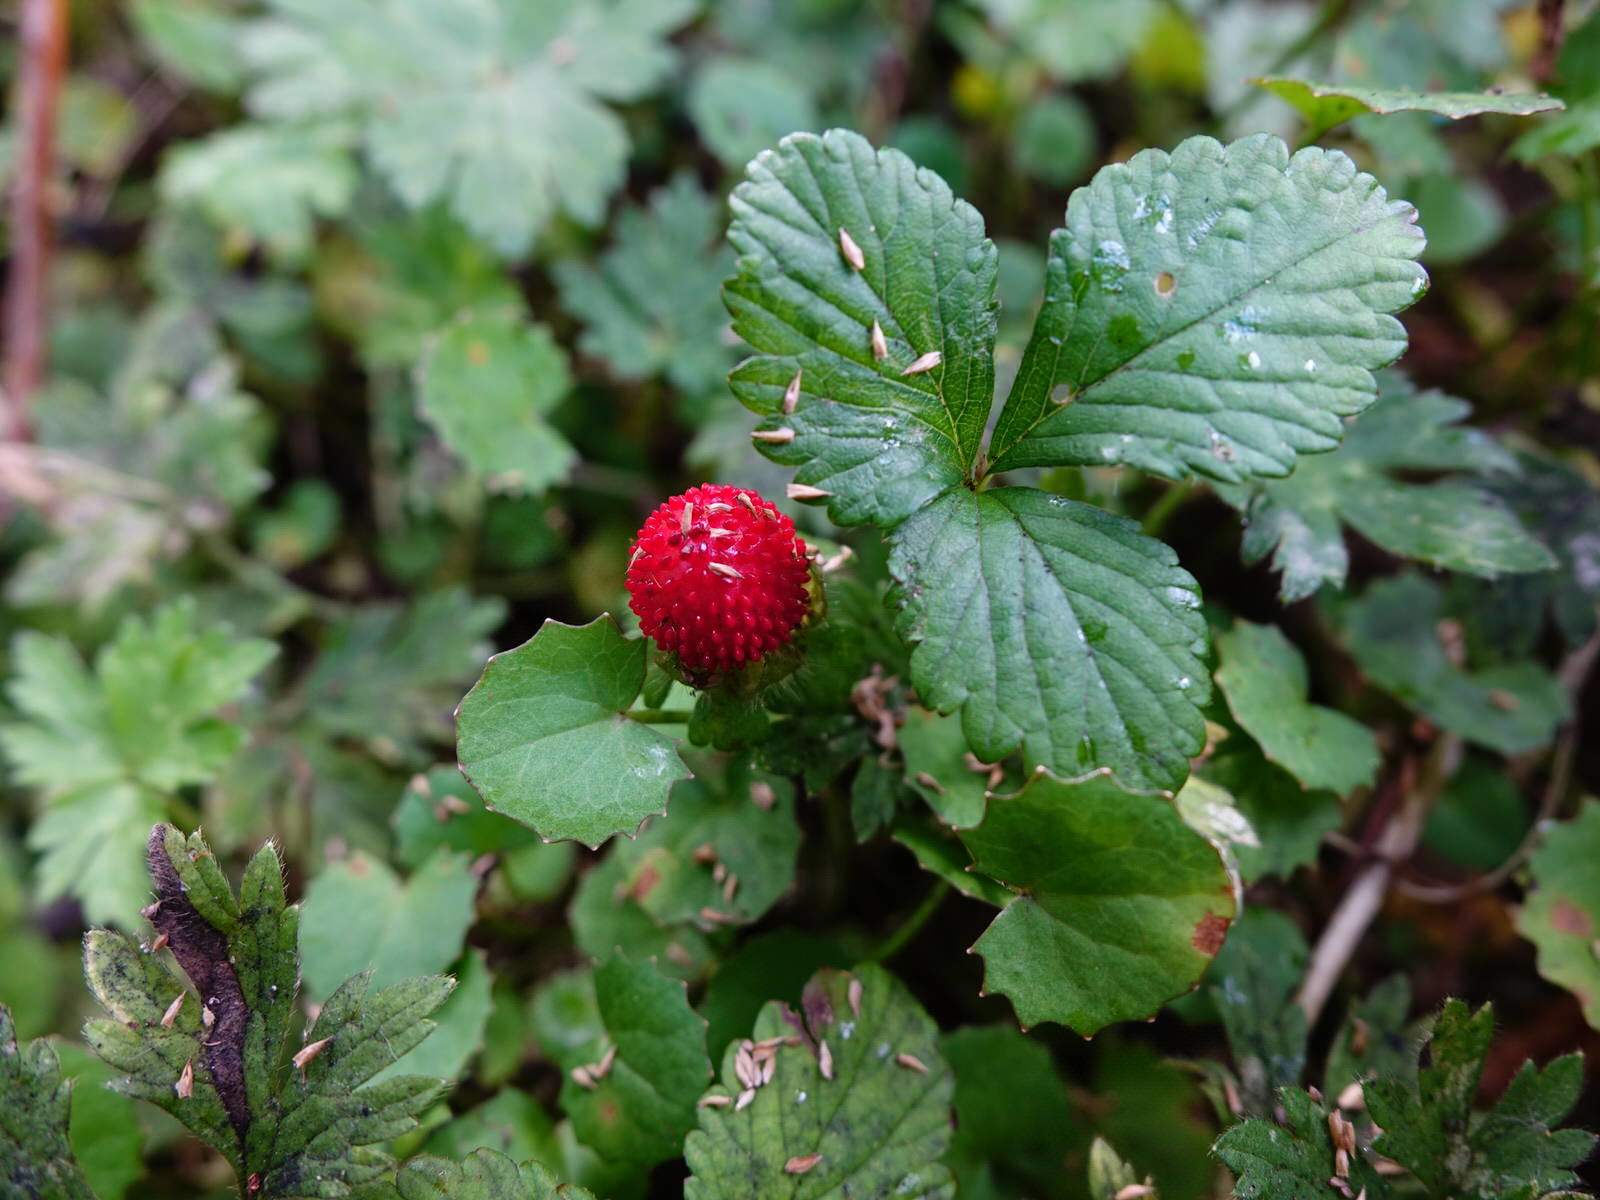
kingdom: Plantae
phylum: Tracheophyta
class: Magnoliopsida
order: Rosales
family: Rosaceae
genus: Potentilla
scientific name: Potentilla indica
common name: Yellow-flowered strawberry
